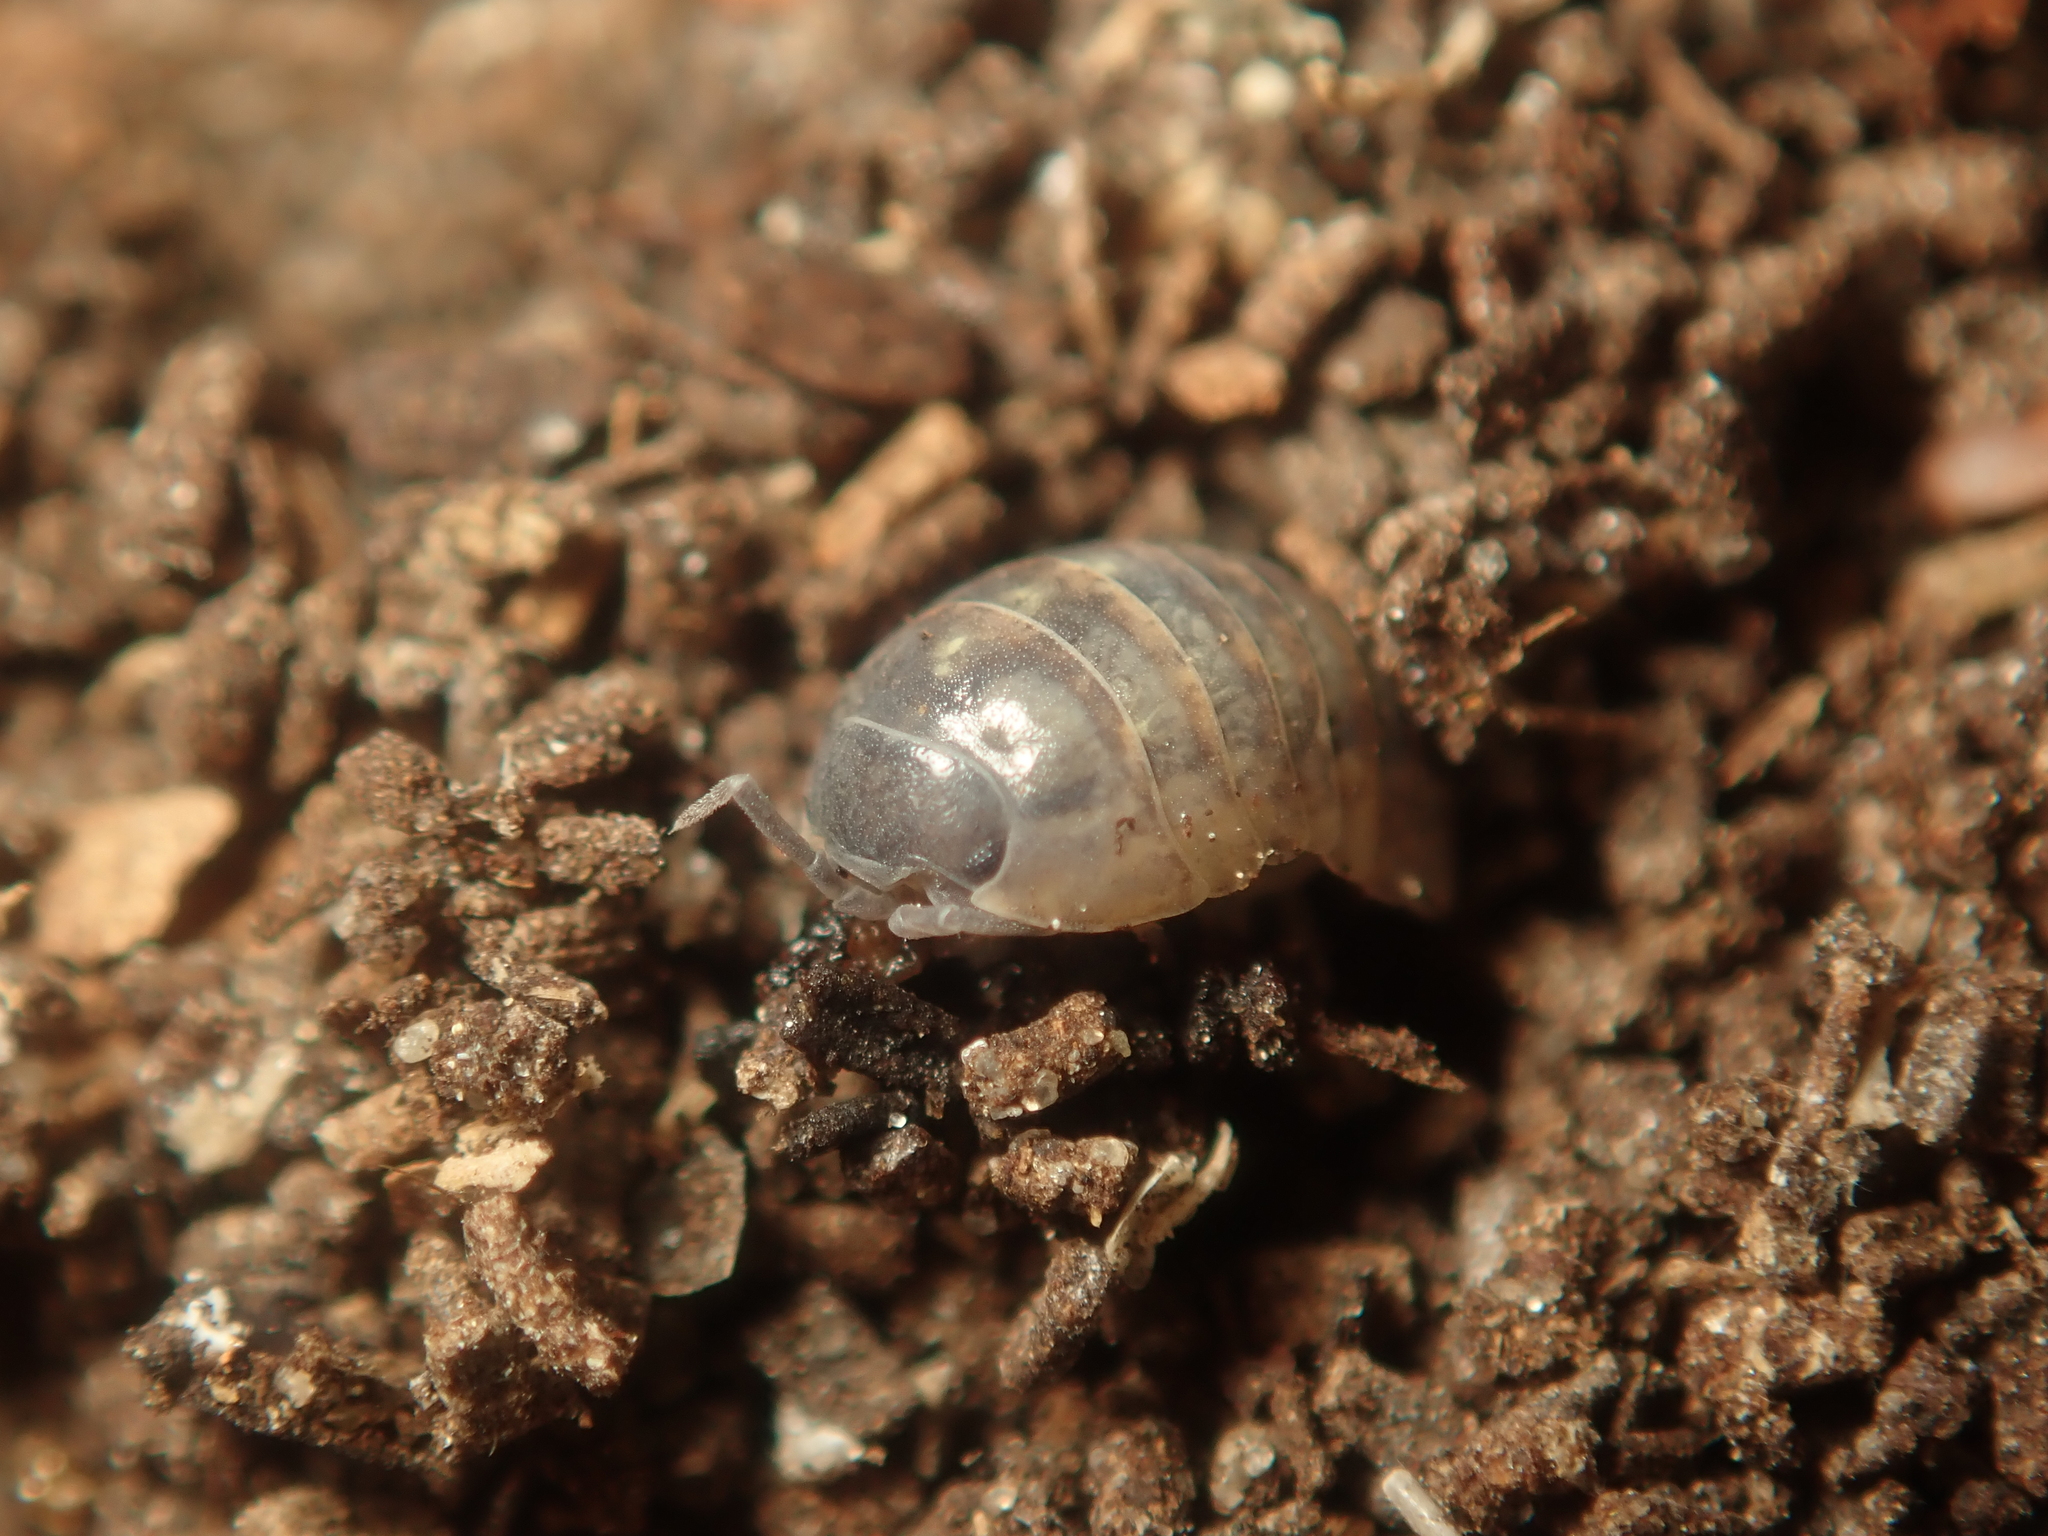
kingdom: Animalia
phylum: Arthropoda
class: Malacostraca
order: Isopoda
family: Armadillidiidae
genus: Armadillidium
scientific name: Armadillidium vulgare
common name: Common pill woodlouse
